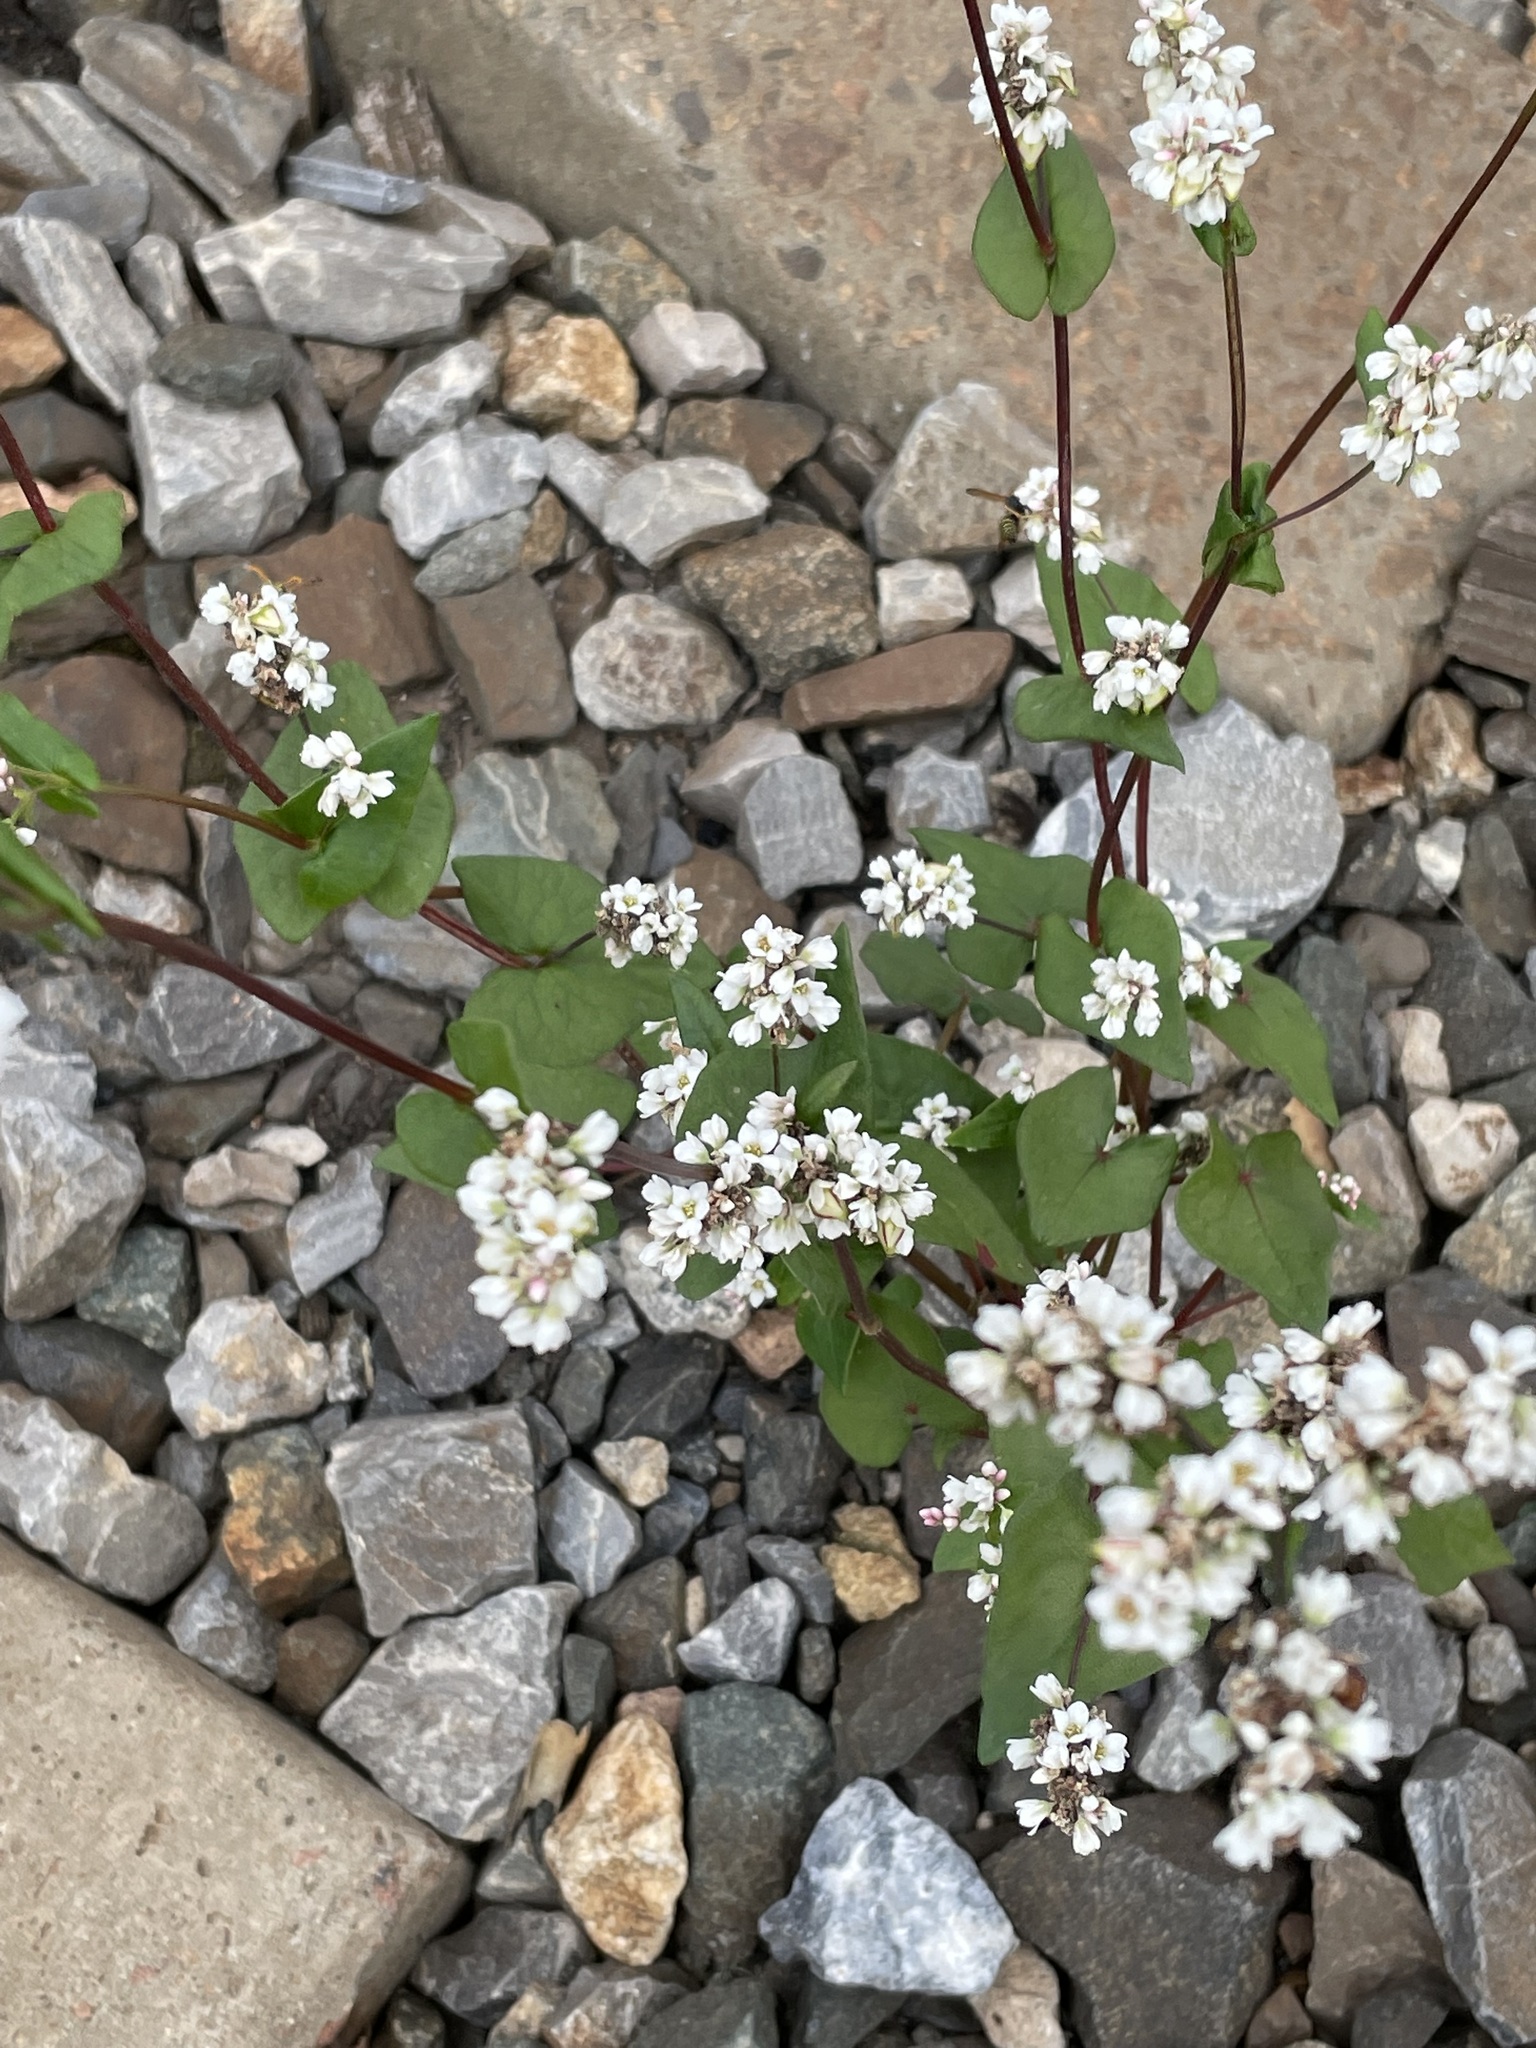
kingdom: Plantae
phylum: Tracheophyta
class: Magnoliopsida
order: Caryophyllales
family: Polygonaceae
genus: Fagopyrum
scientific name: Fagopyrum esculentum
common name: Buckwheat
